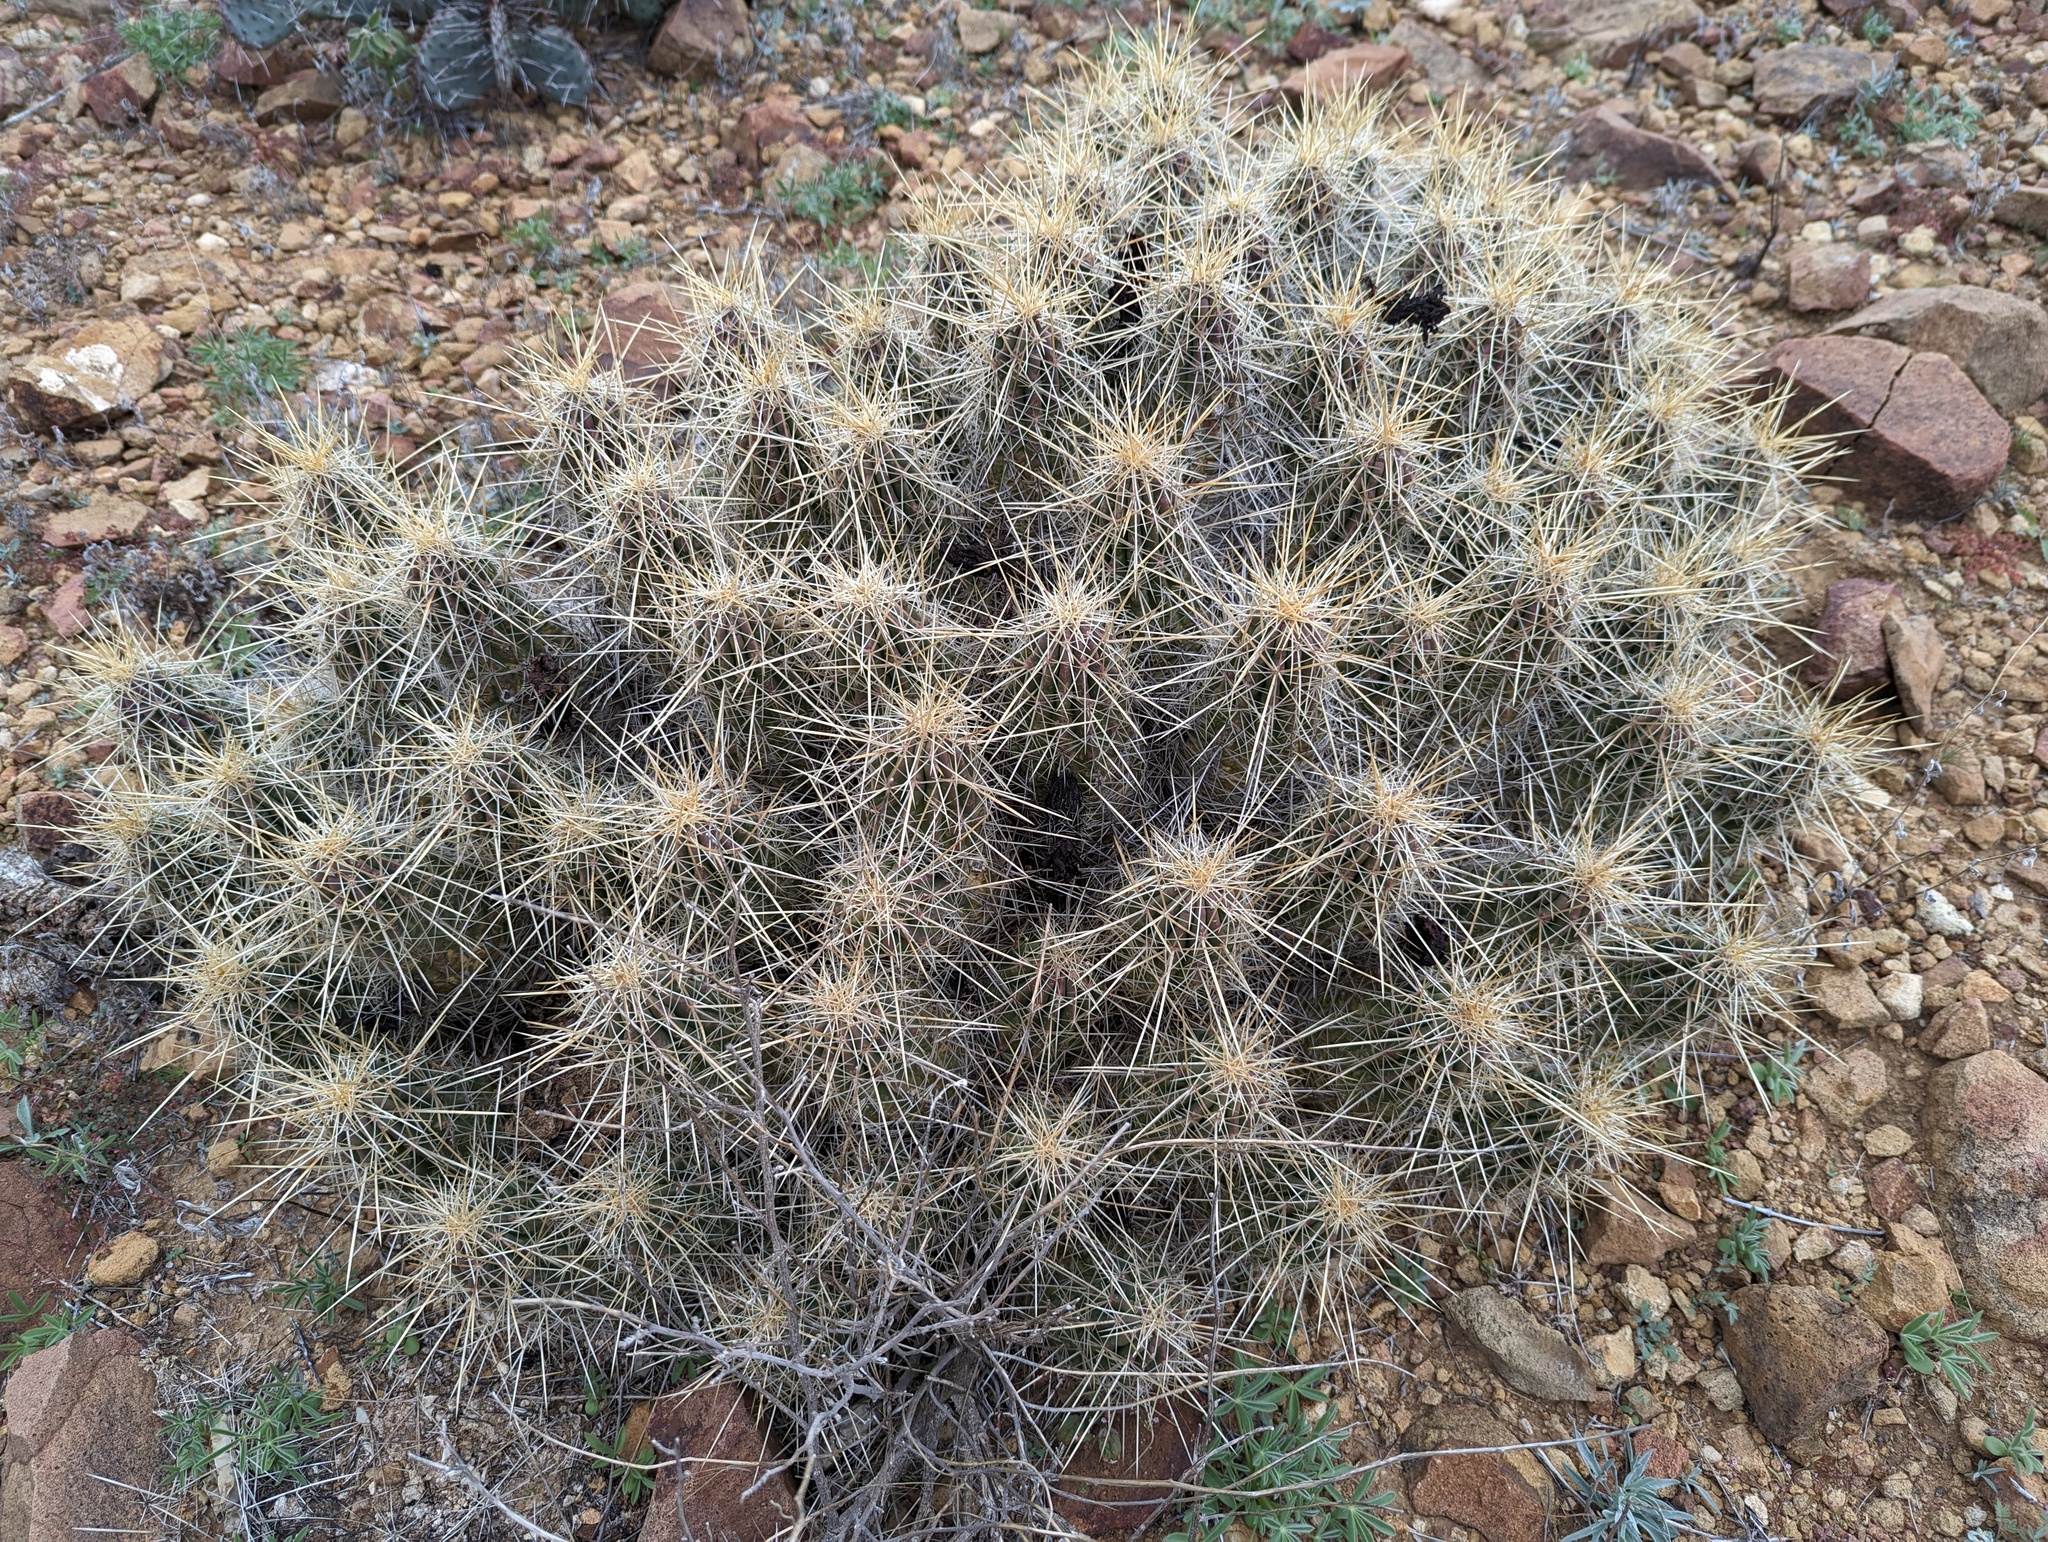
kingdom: Plantae
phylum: Tracheophyta
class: Magnoliopsida
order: Caryophyllales
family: Cactaceae
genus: Echinocereus
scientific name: Echinocereus stramineus
